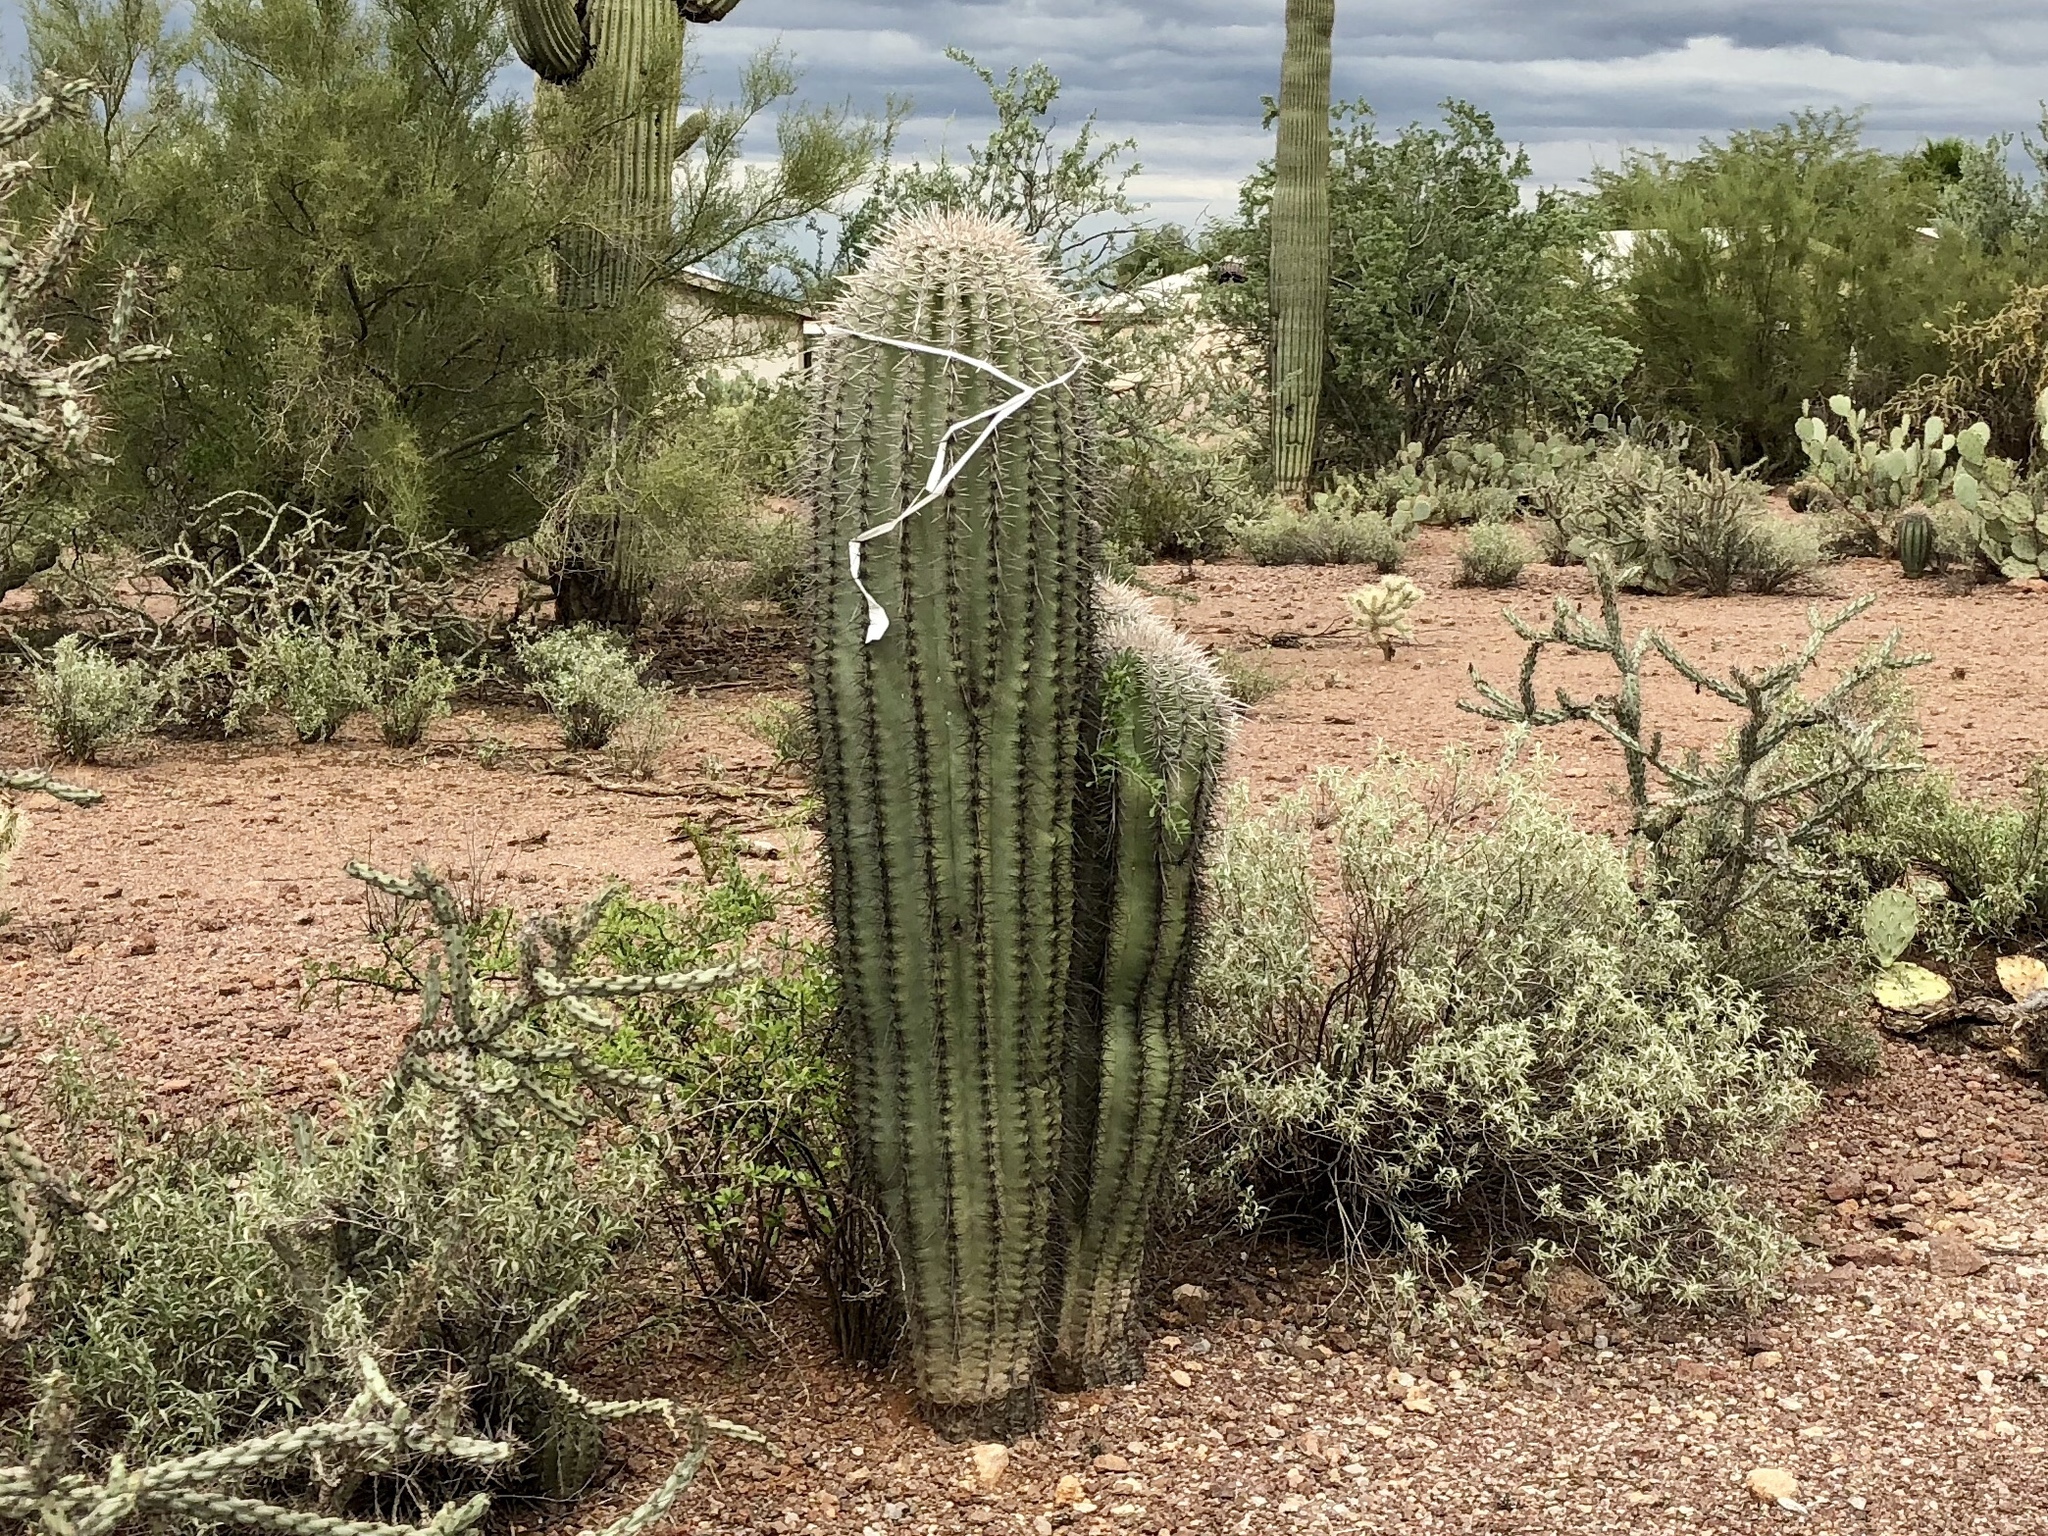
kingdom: Plantae
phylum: Tracheophyta
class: Magnoliopsida
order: Caryophyllales
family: Cactaceae
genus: Carnegiea
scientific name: Carnegiea gigantea
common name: Saguaro
